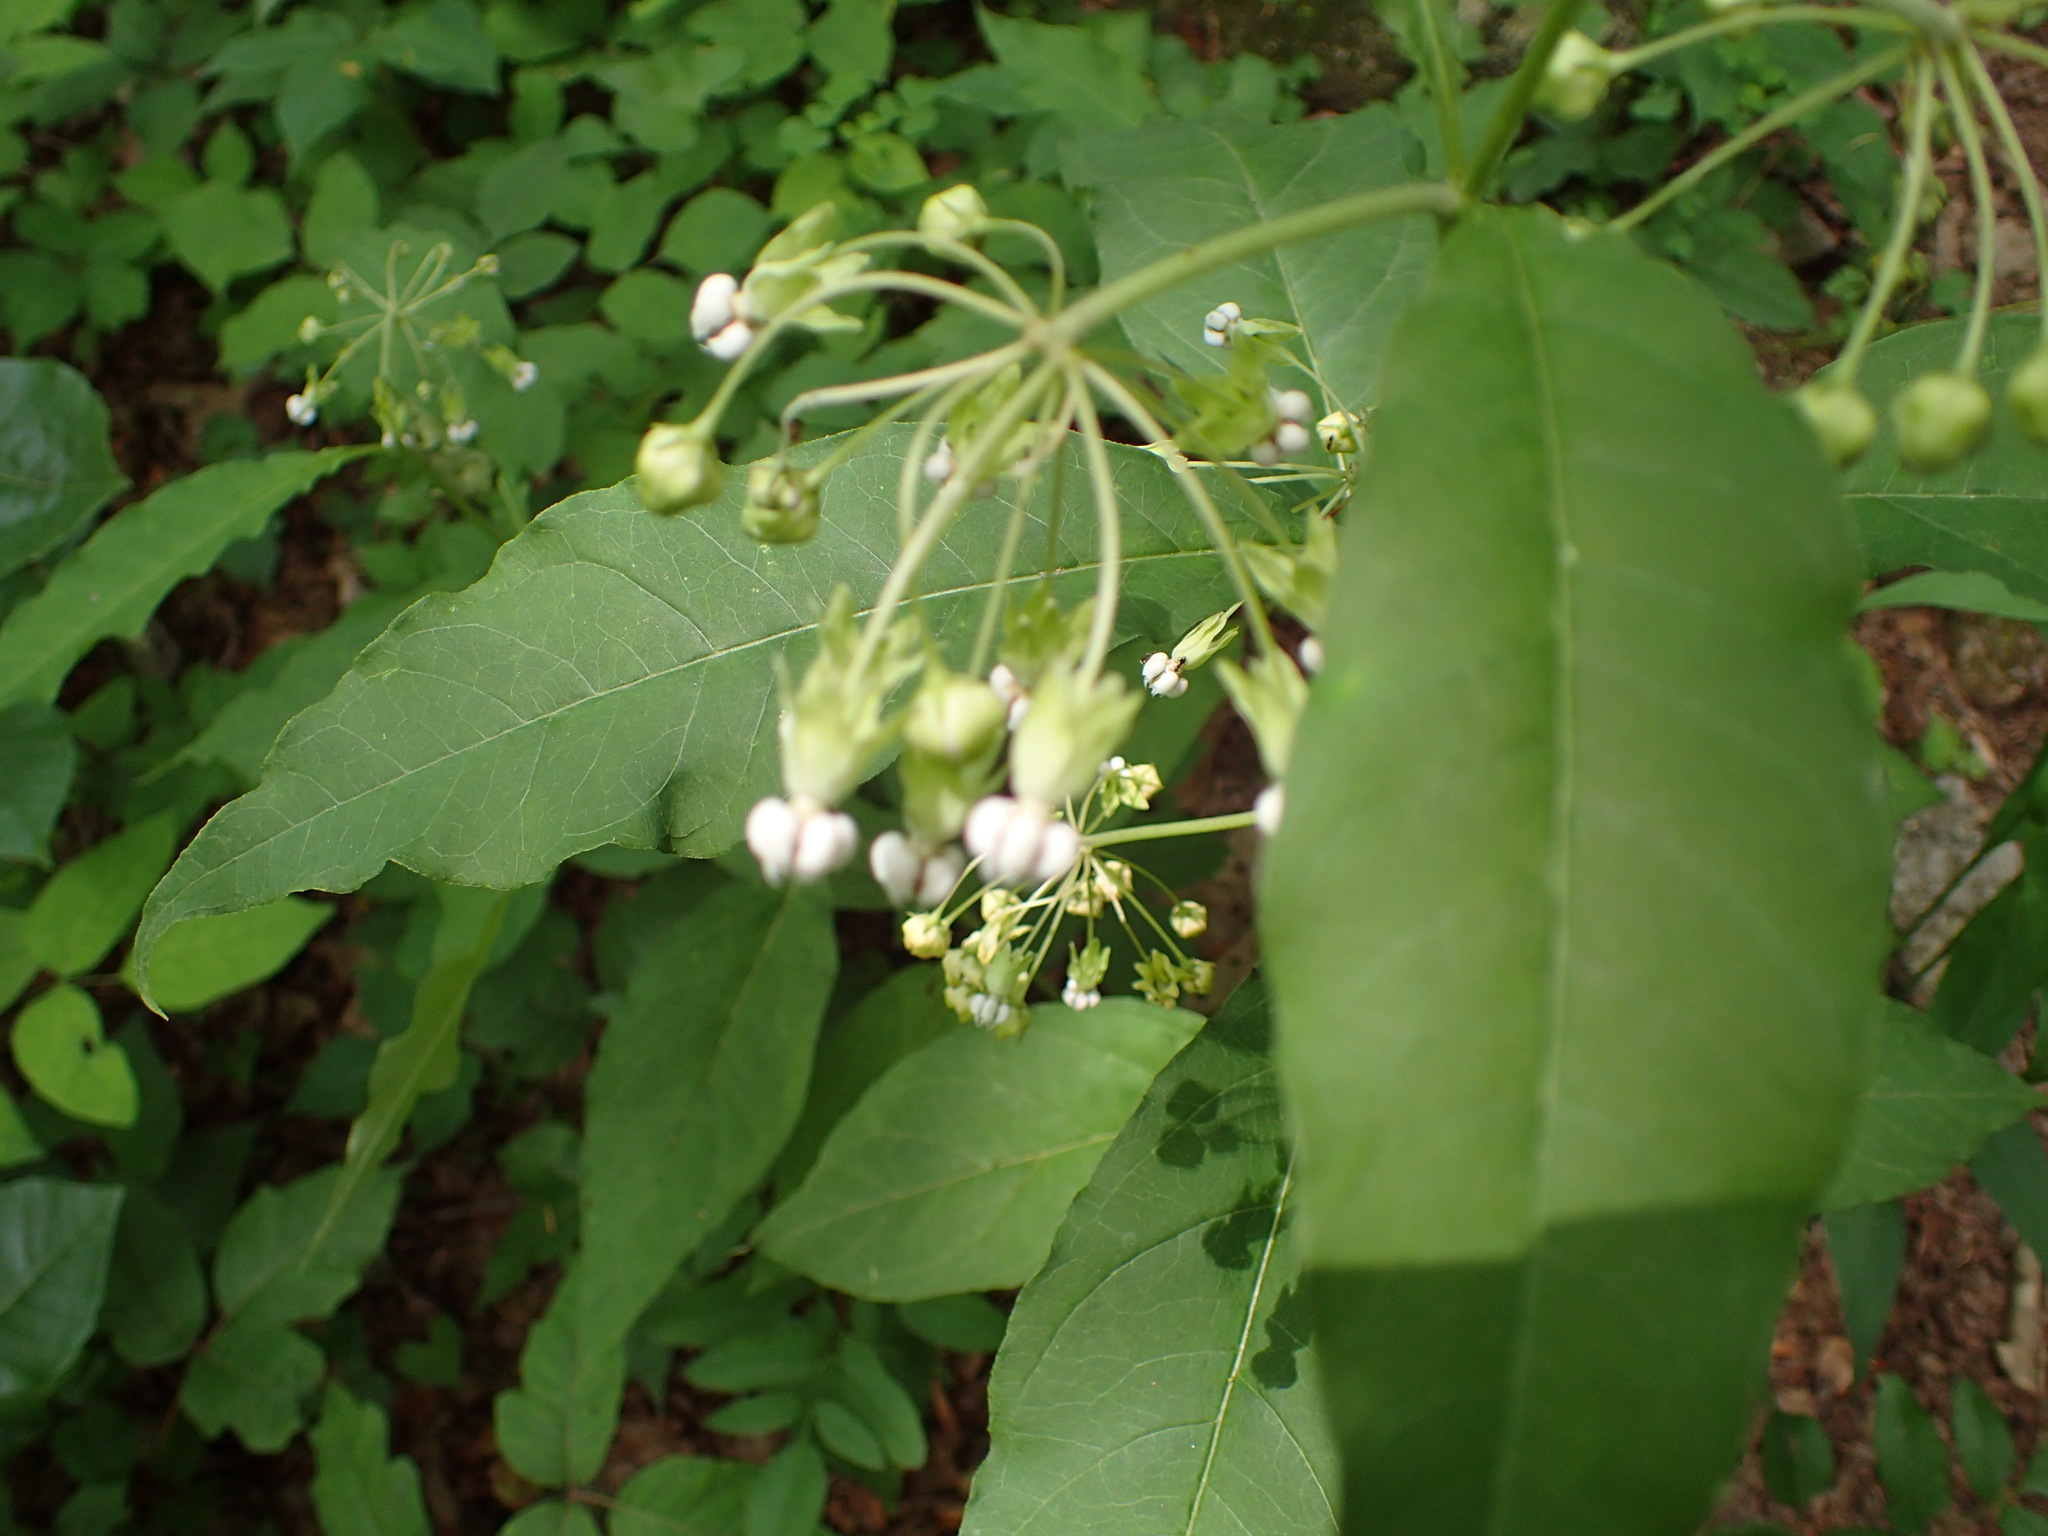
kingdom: Plantae
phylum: Tracheophyta
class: Magnoliopsida
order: Gentianales
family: Apocynaceae
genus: Asclepias
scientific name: Asclepias exaltata
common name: Poke milkweed
